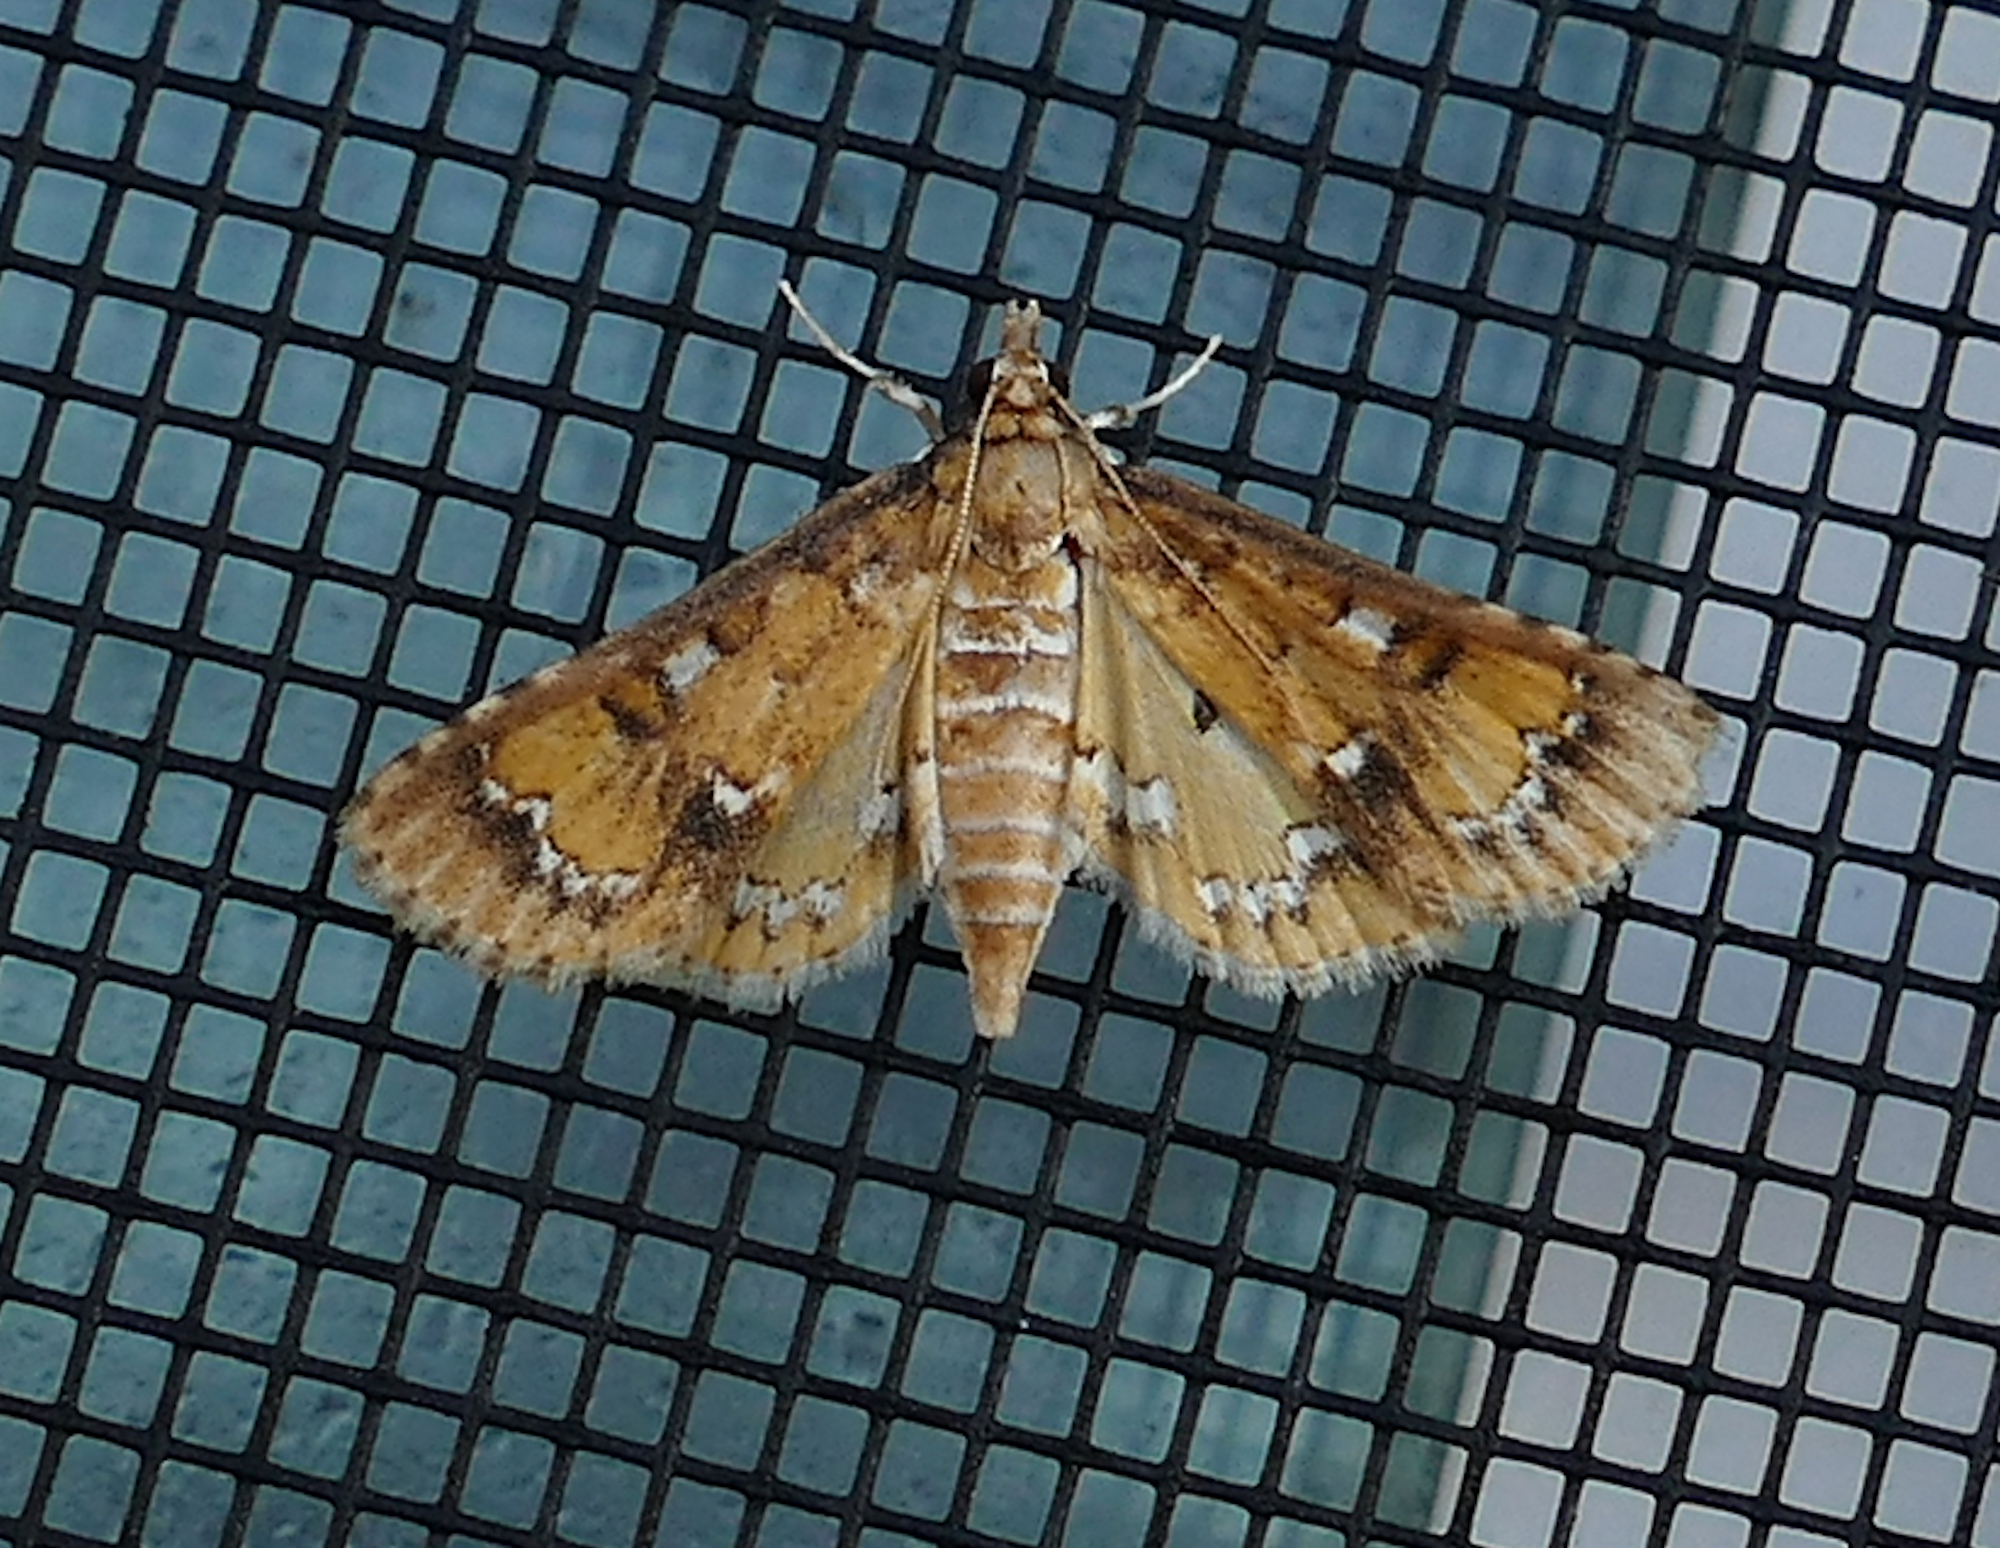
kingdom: Animalia
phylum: Arthropoda
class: Insecta
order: Lepidoptera
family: Crambidae
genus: Niphograpta
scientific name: Niphograpta albiguttalis
